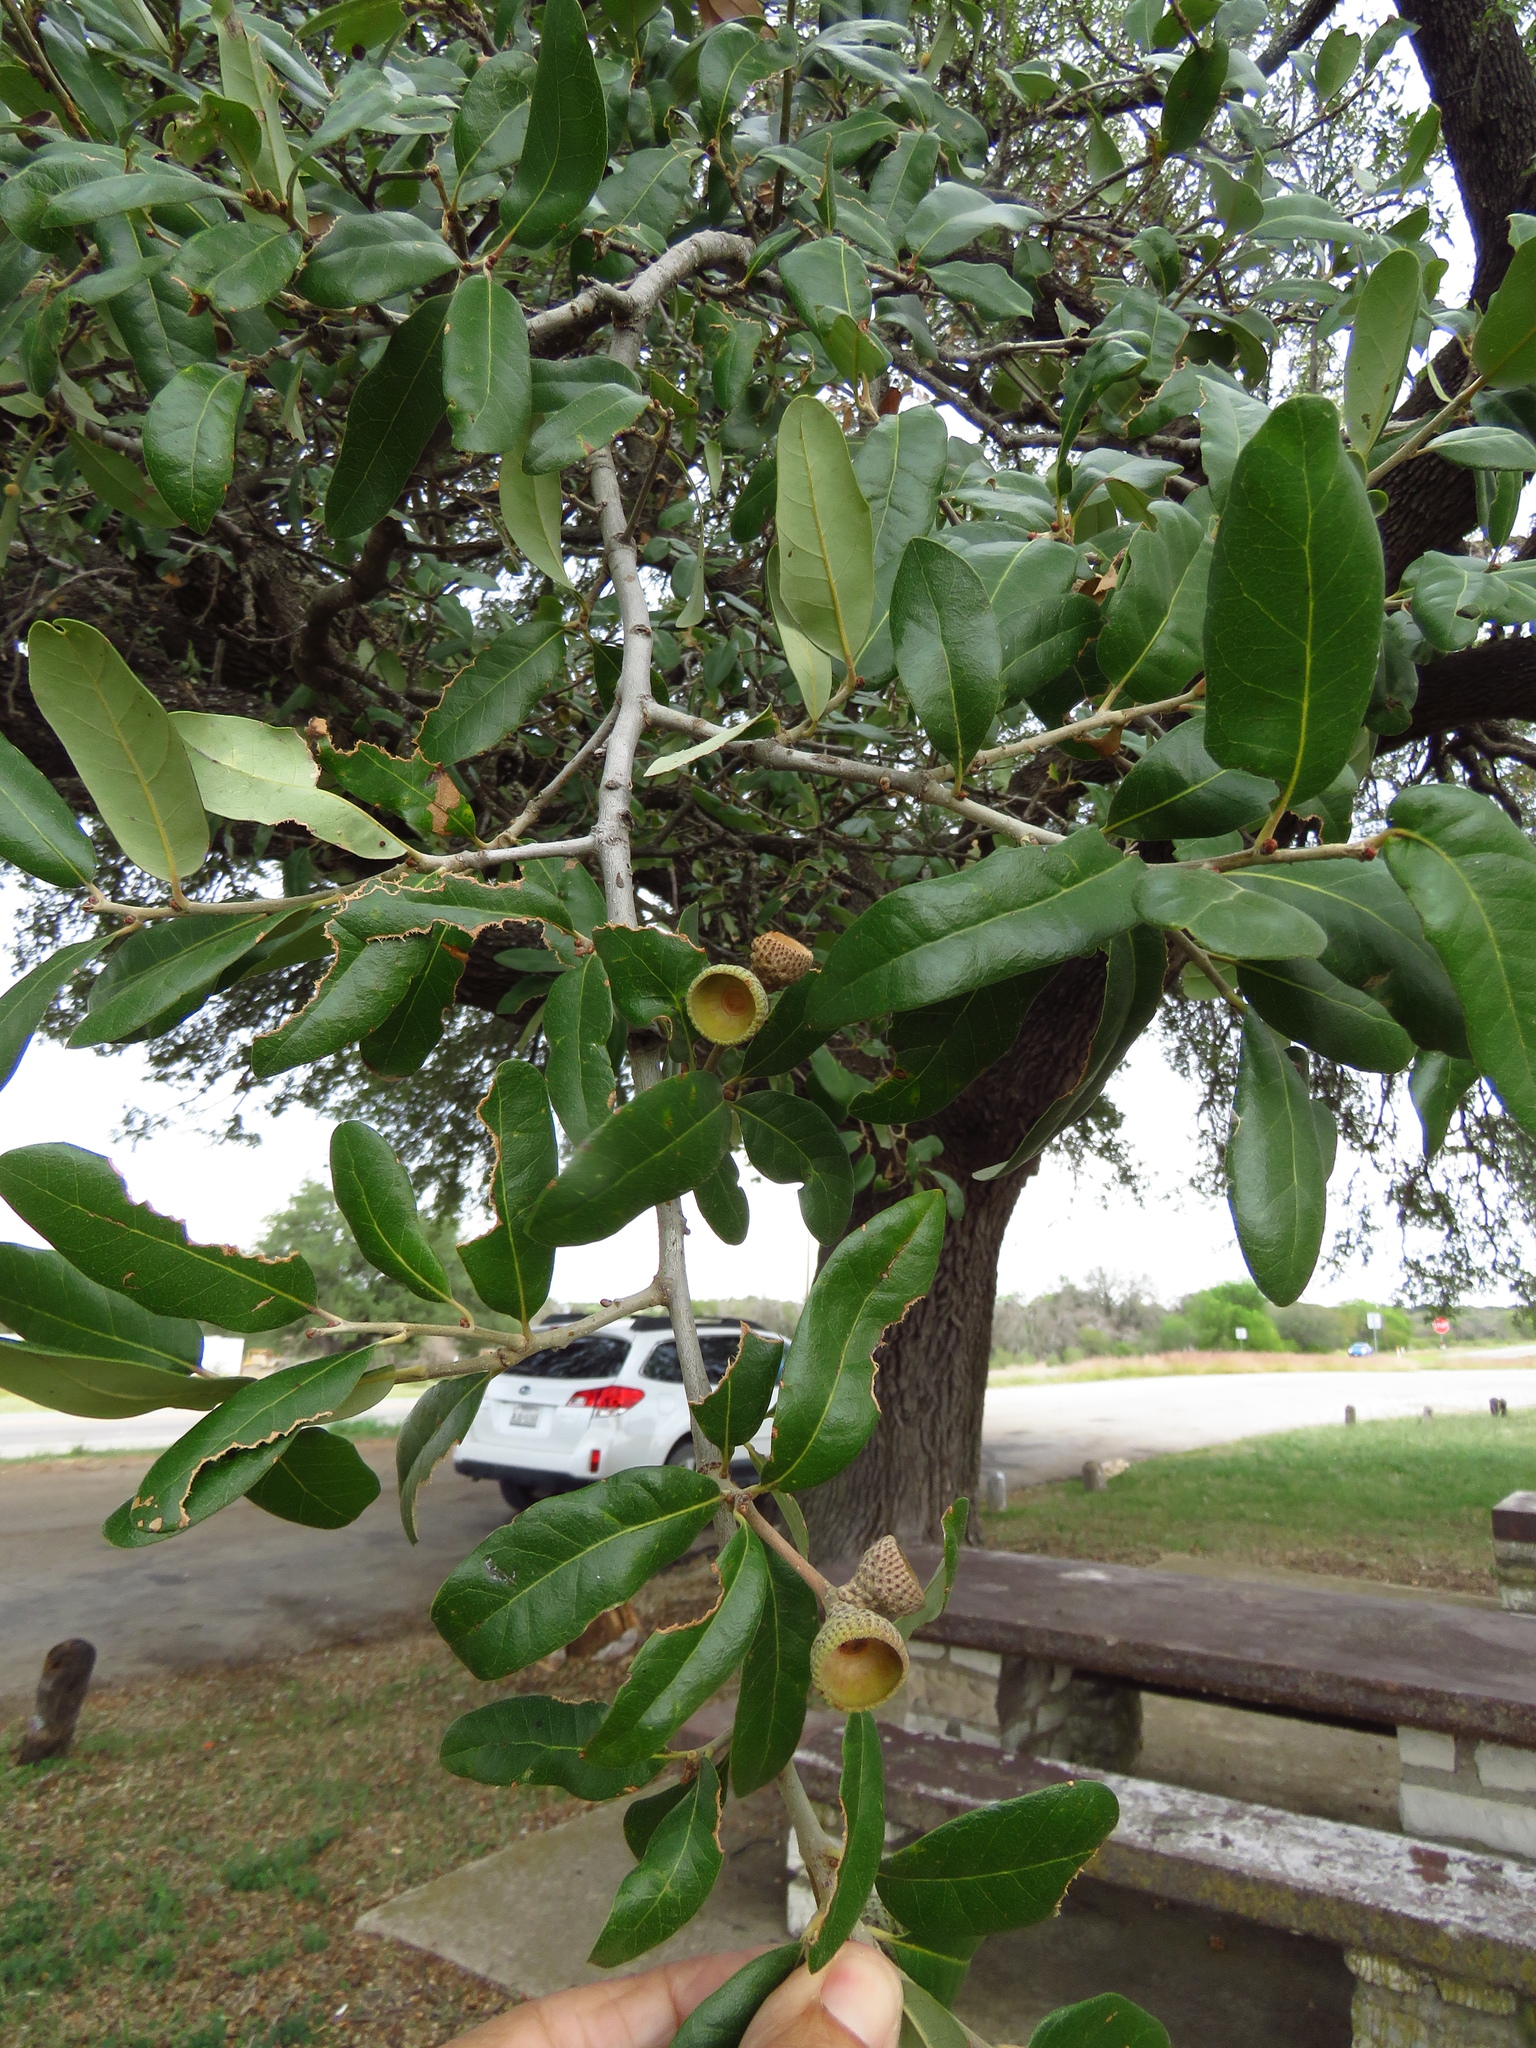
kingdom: Plantae
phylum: Tracheophyta
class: Magnoliopsida
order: Fagales
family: Fagaceae
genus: Quercus
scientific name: Quercus fusiformis
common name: Texas live oak
